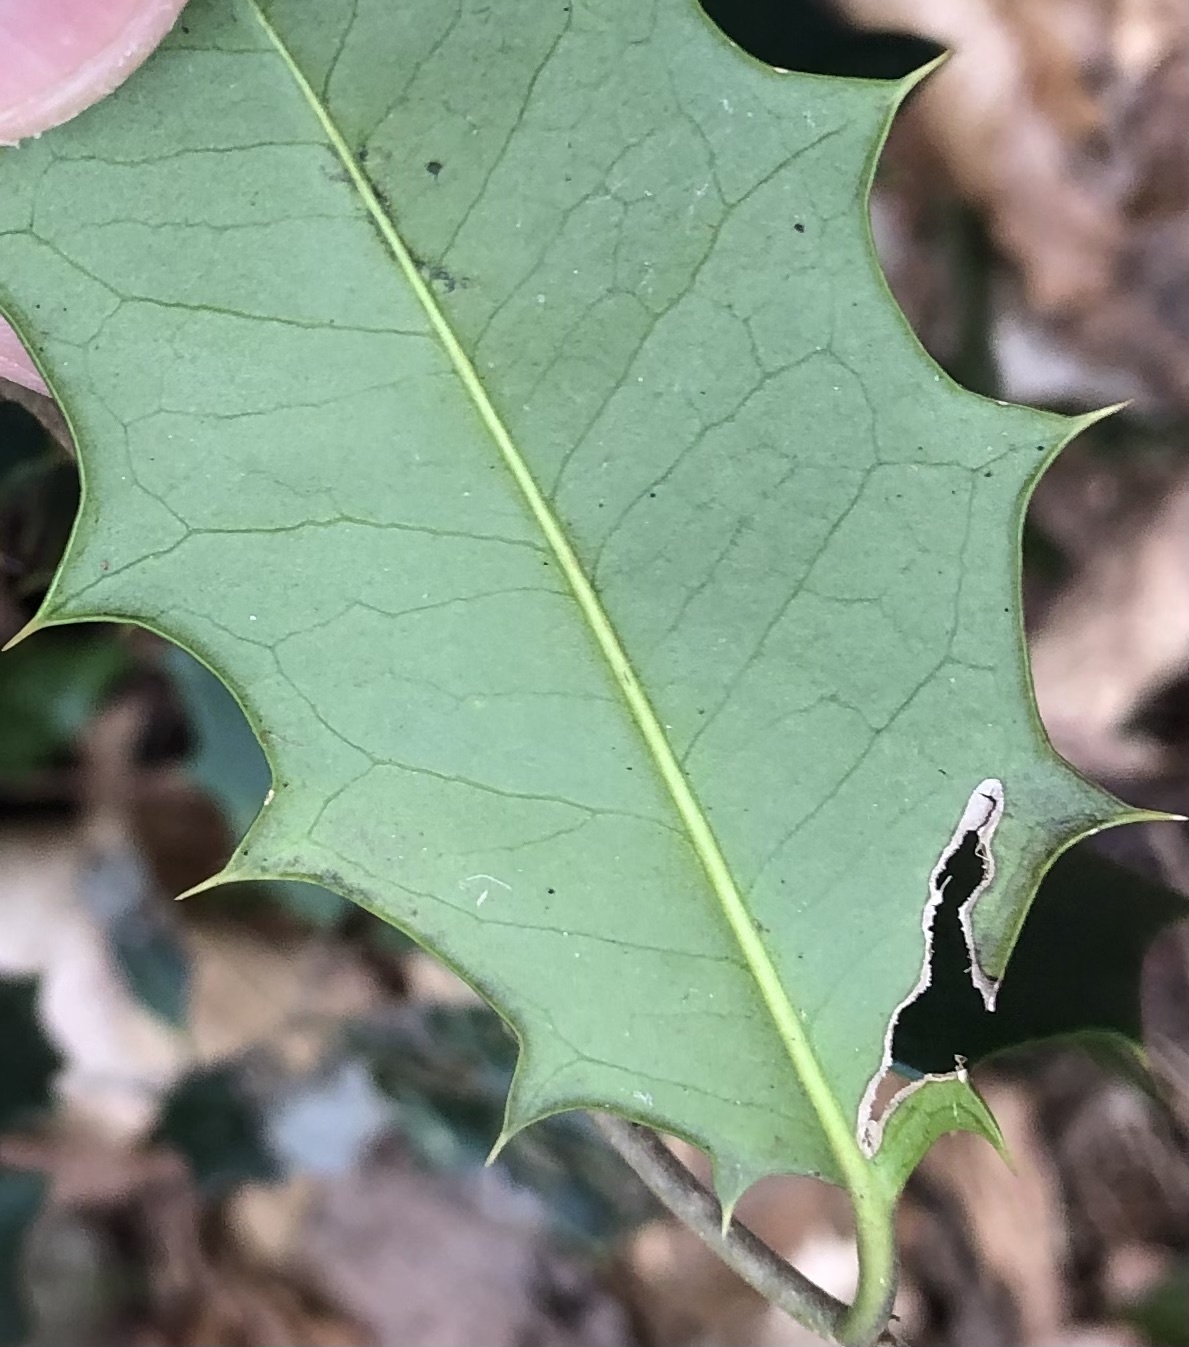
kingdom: Animalia
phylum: Arthropoda
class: Insecta
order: Diptera
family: Agromyzidae
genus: Phytomyza
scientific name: Phytomyza ilicicola
